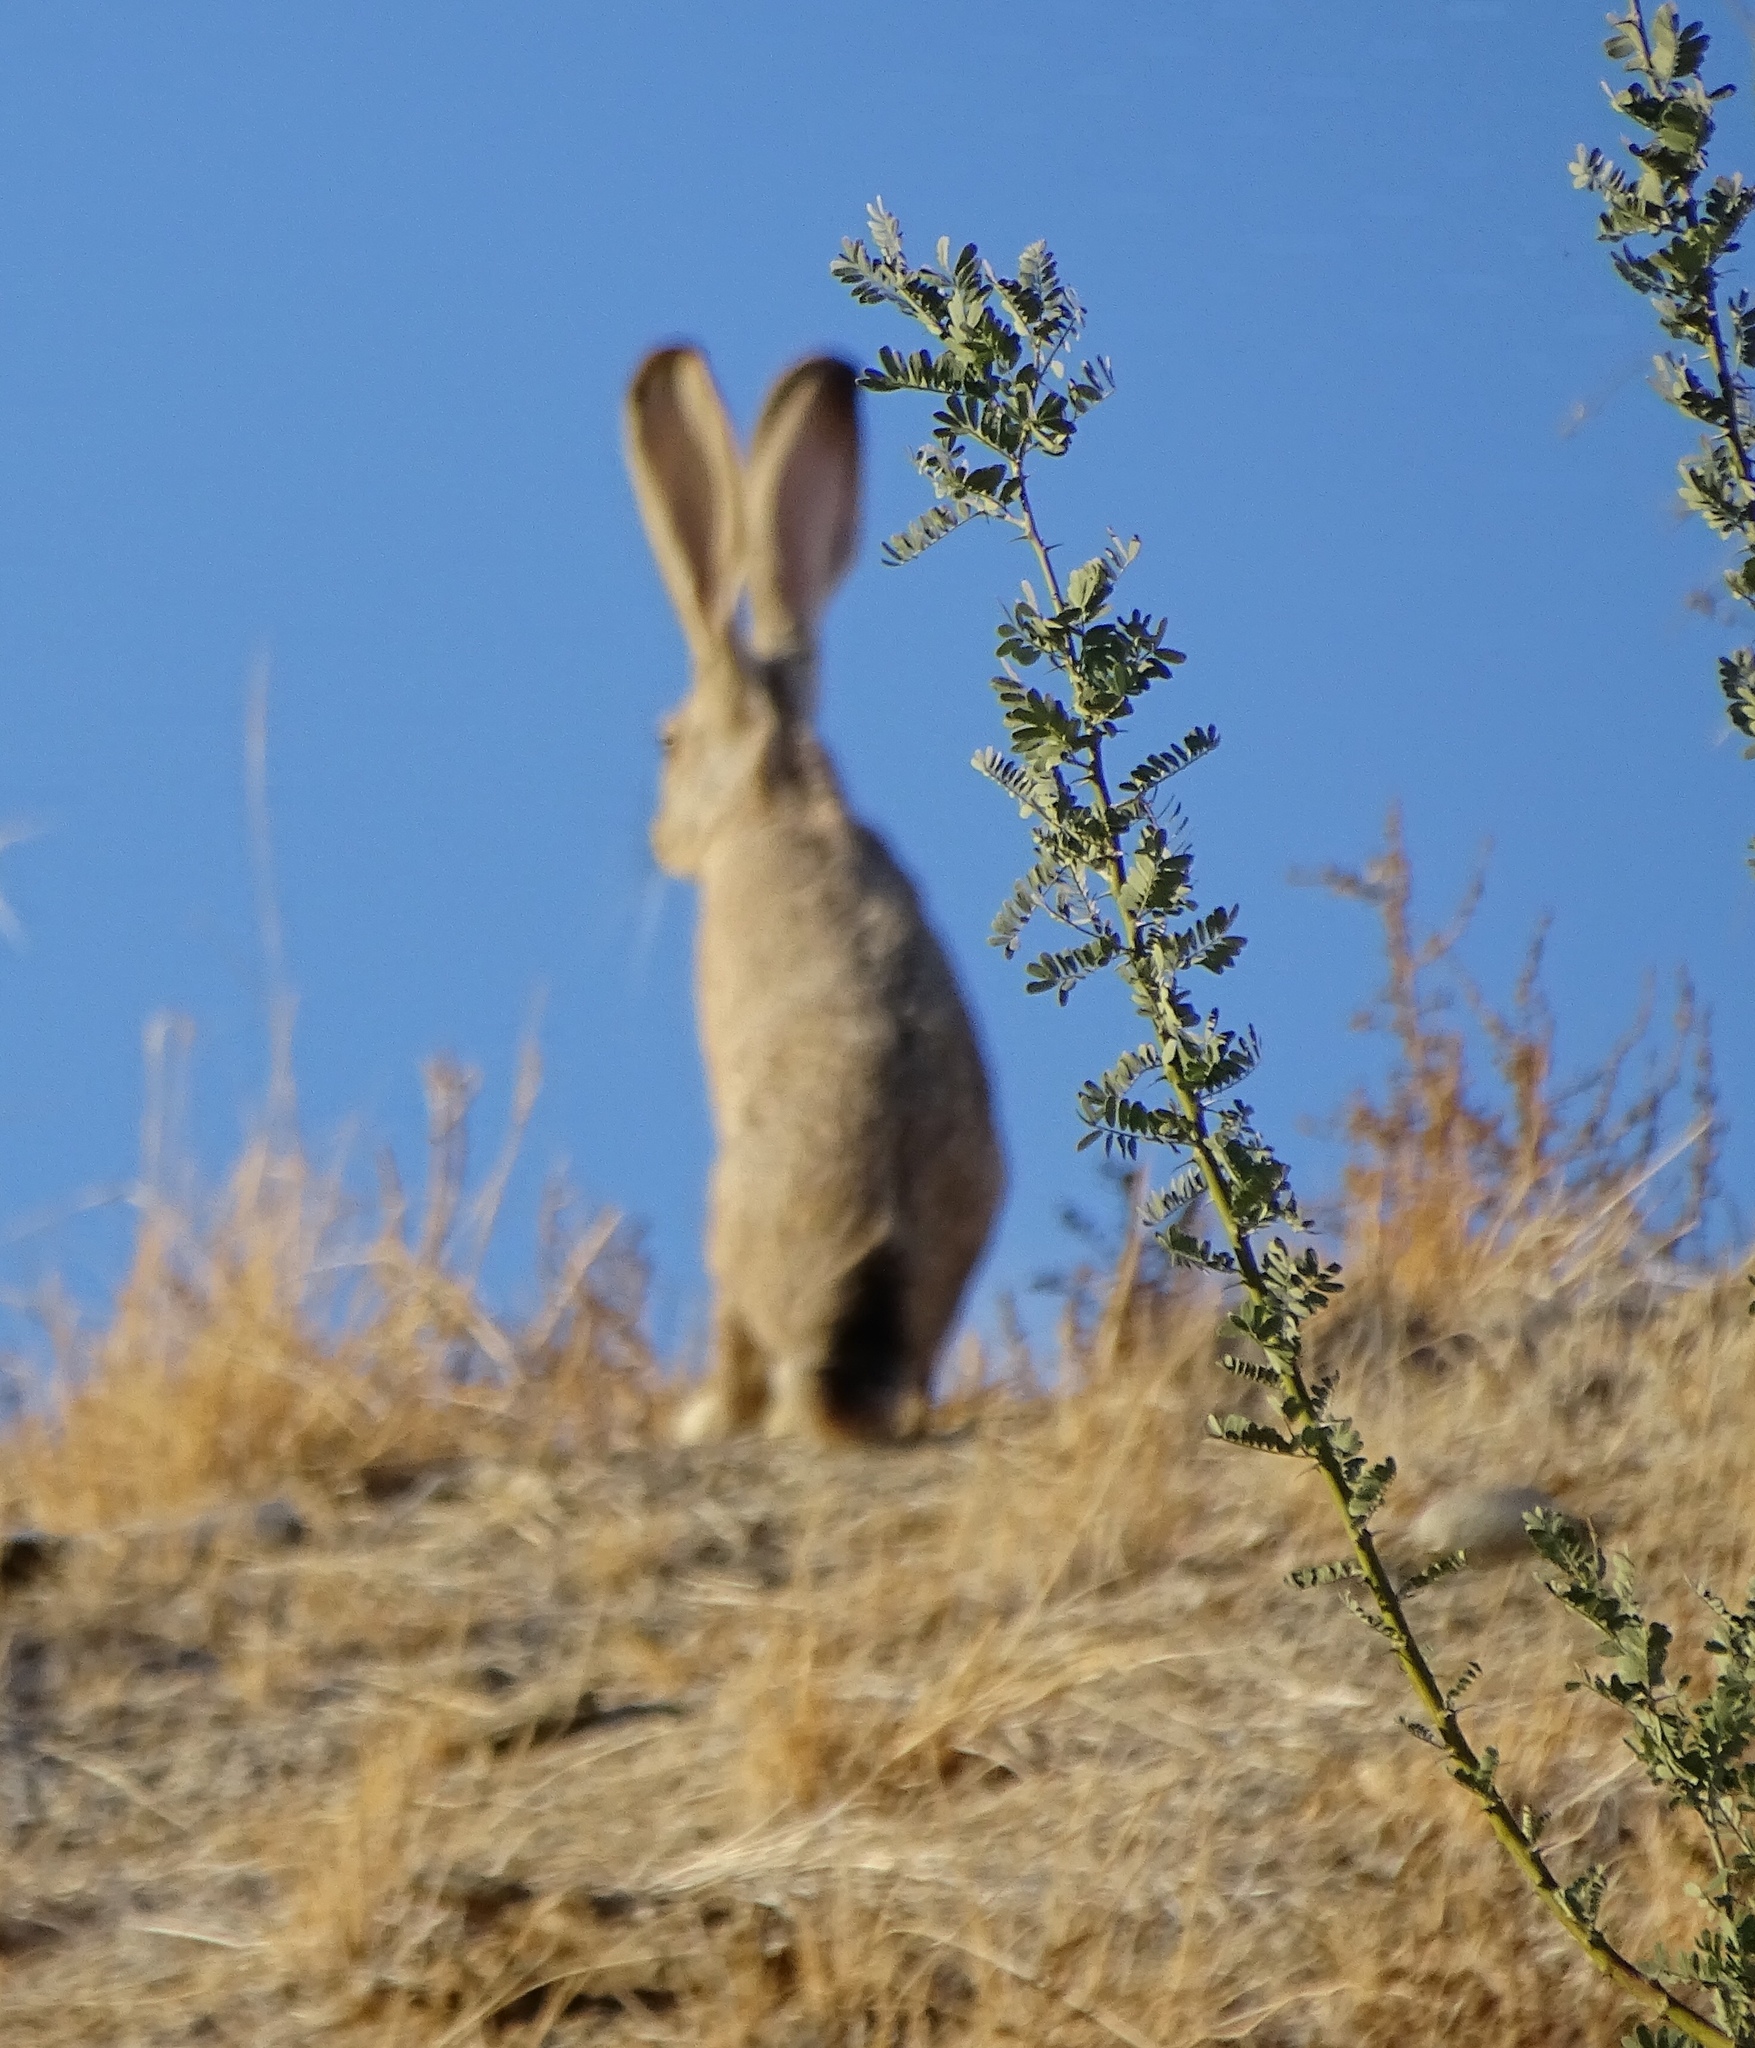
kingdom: Animalia
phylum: Chordata
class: Mammalia
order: Lagomorpha
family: Leporidae
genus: Lepus
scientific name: Lepus californicus
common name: Black-tailed jackrabbit
